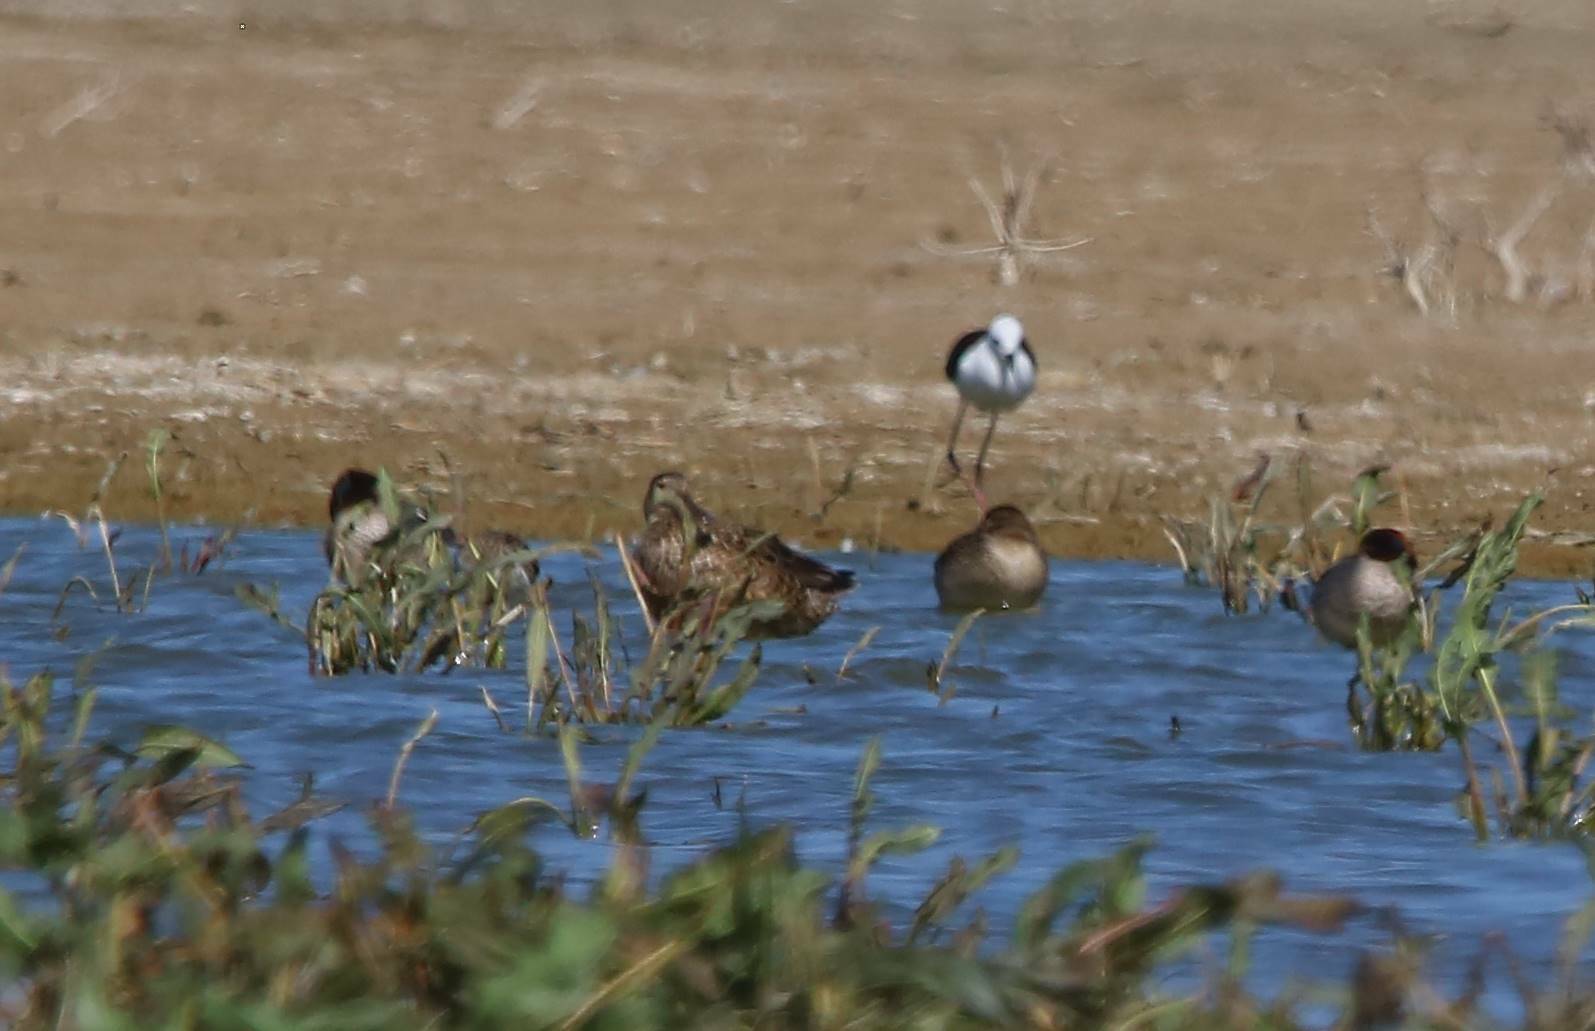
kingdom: Animalia
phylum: Chordata
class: Aves
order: Anseriformes
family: Anatidae
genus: Anas
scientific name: Anas crecca
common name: Eurasian teal
